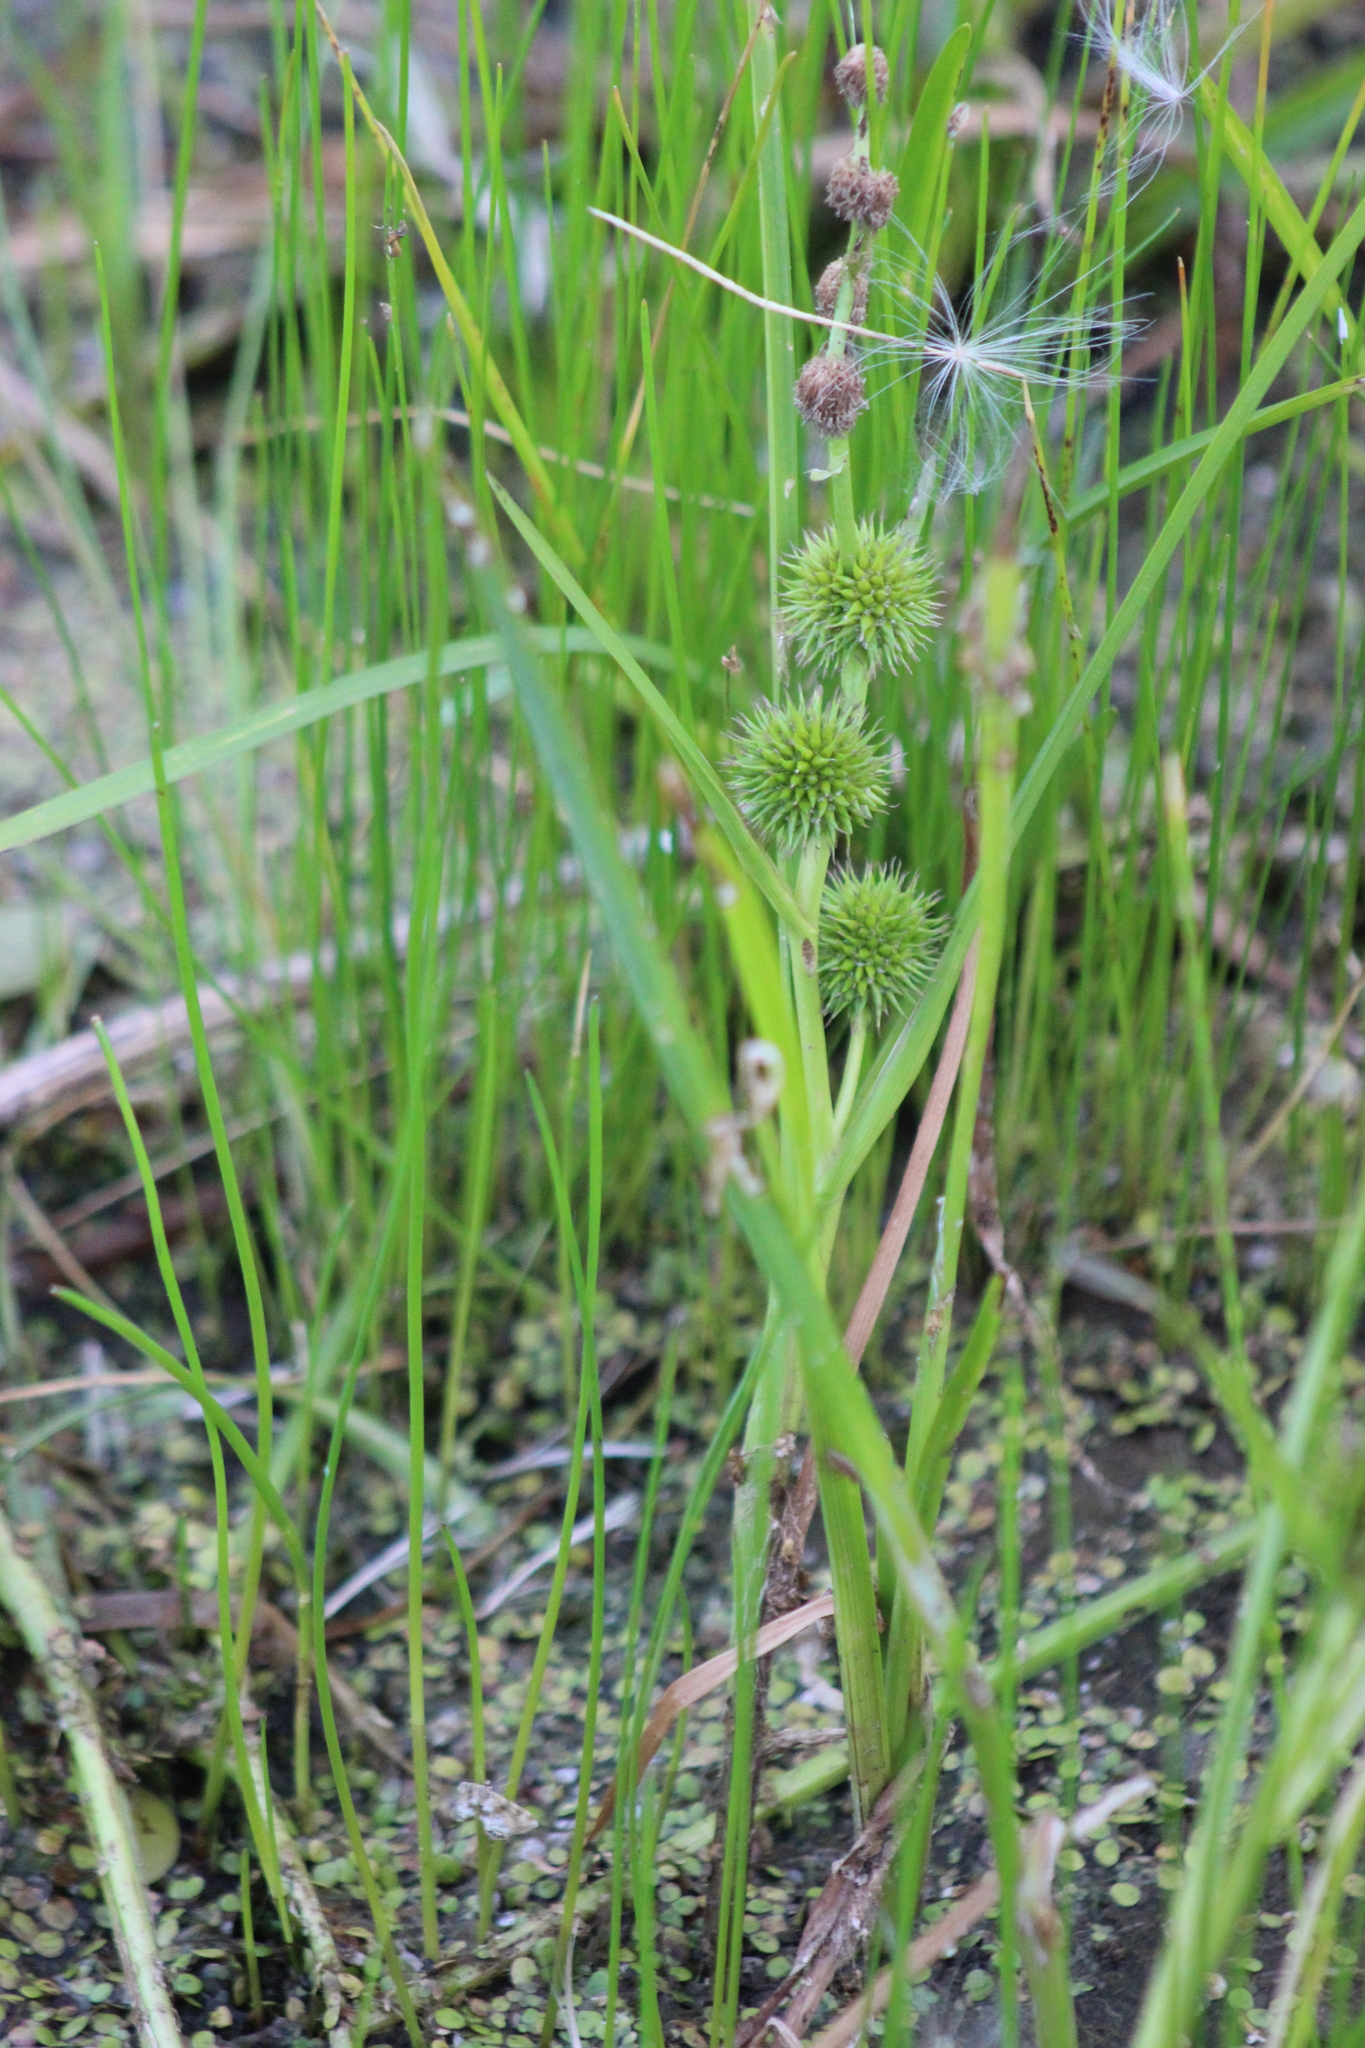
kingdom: Plantae
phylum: Tracheophyta
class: Liliopsida
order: Poales
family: Typhaceae
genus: Sparganium
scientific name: Sparganium emersum
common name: Unbranched bur-reed
